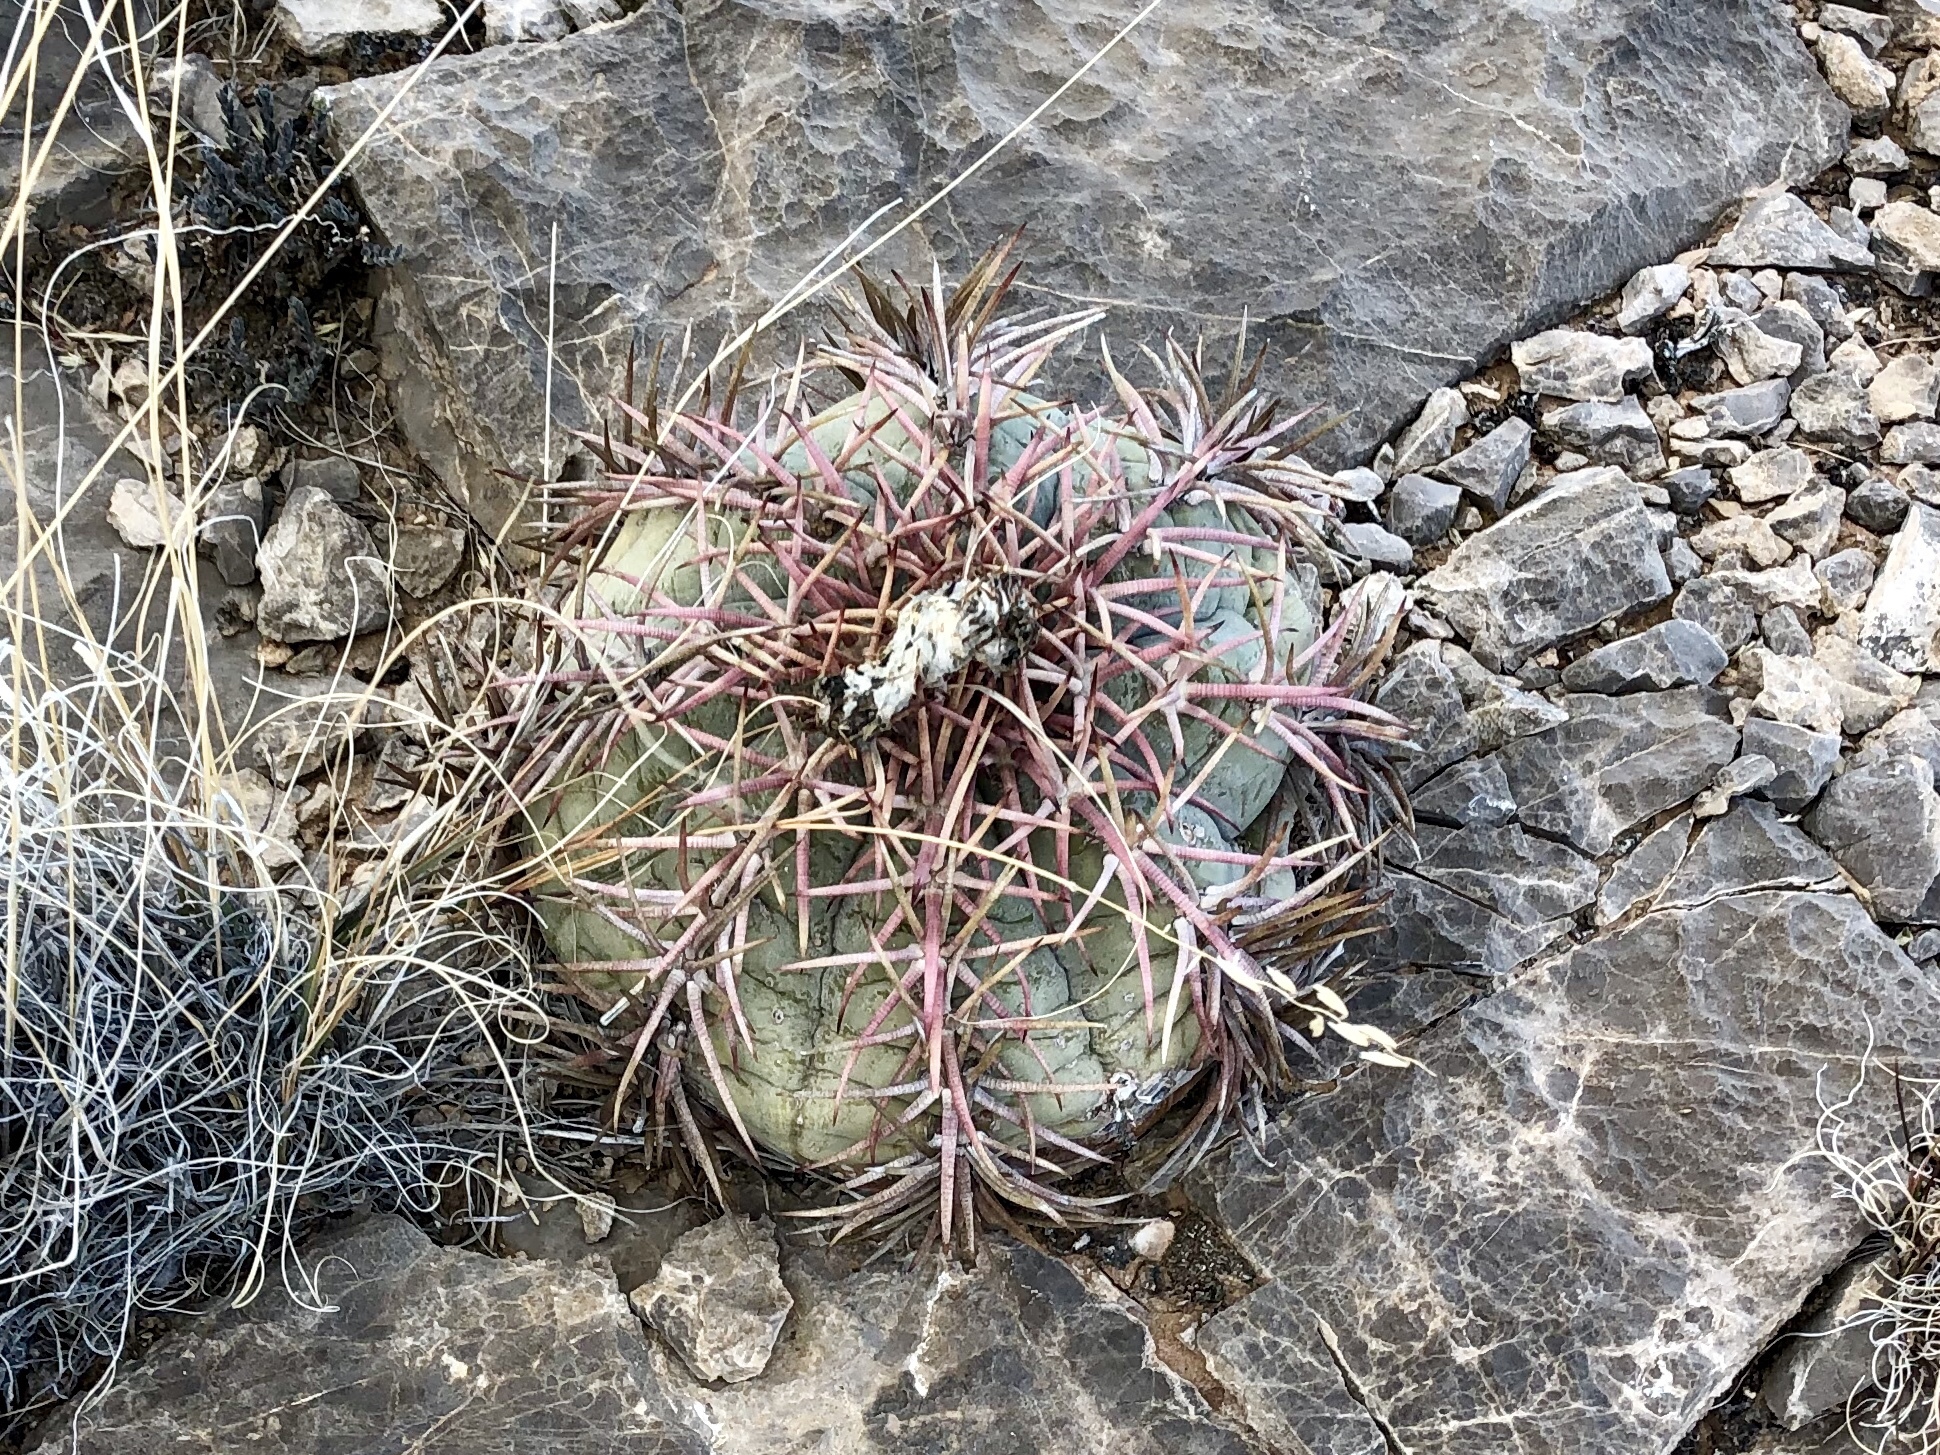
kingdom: Plantae
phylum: Tracheophyta
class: Magnoliopsida
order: Caryophyllales
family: Cactaceae
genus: Echinocactus
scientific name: Echinocactus horizonthalonius
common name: Devilshead
